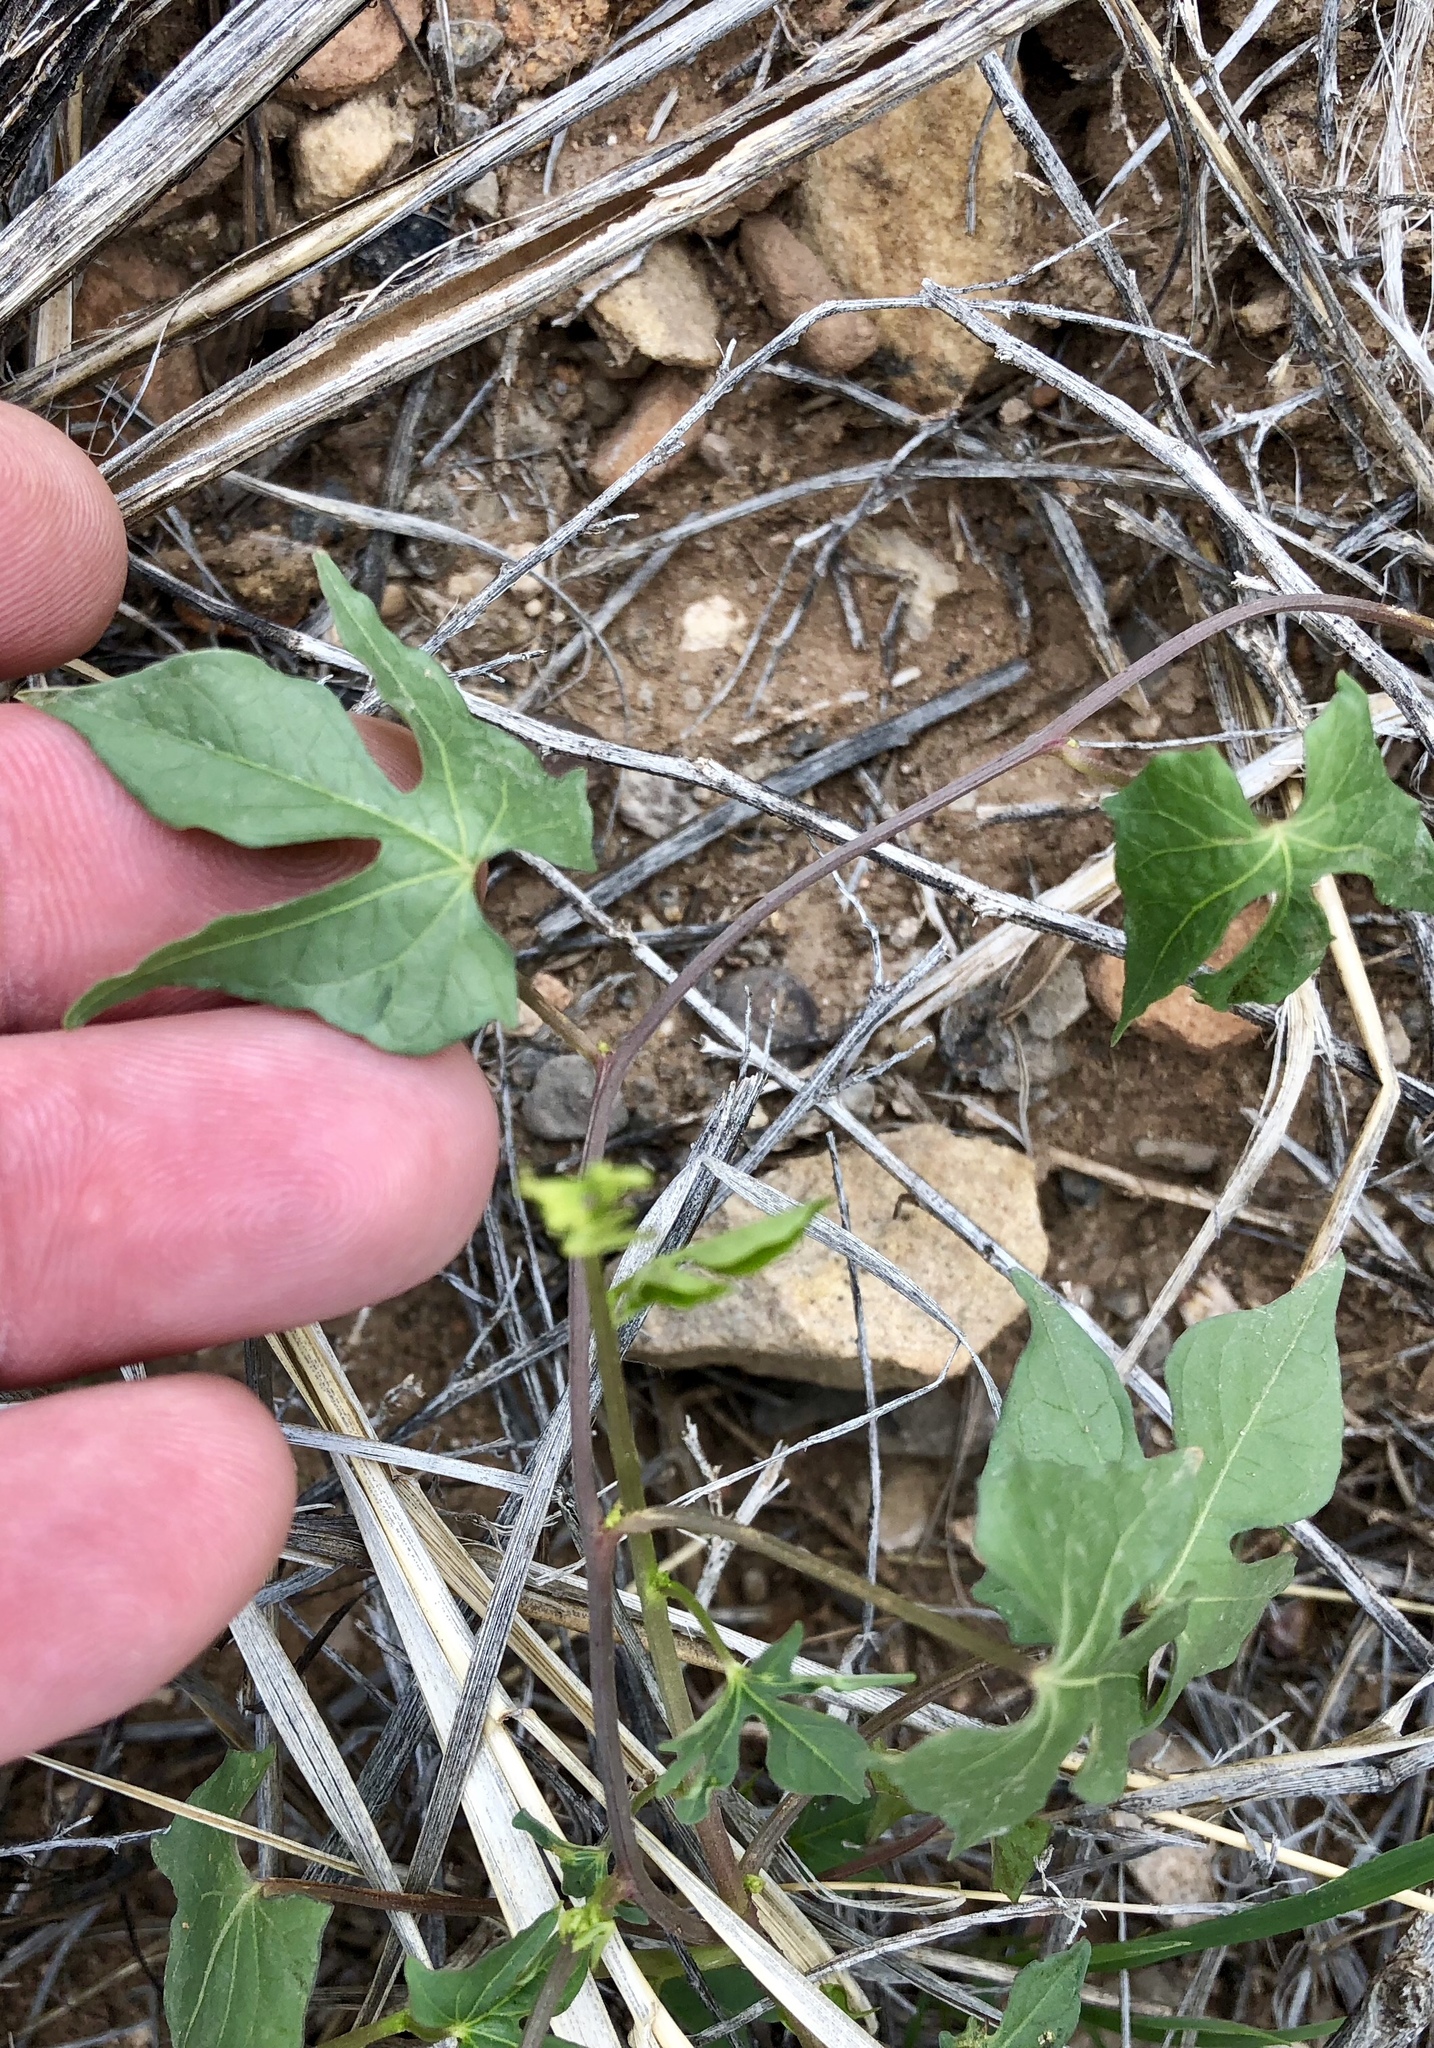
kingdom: Plantae
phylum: Tracheophyta
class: Magnoliopsida
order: Solanales
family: Convolvulaceae
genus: Ipomoea
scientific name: Ipomoea cristulata
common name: Trans-pecos morning-glory
